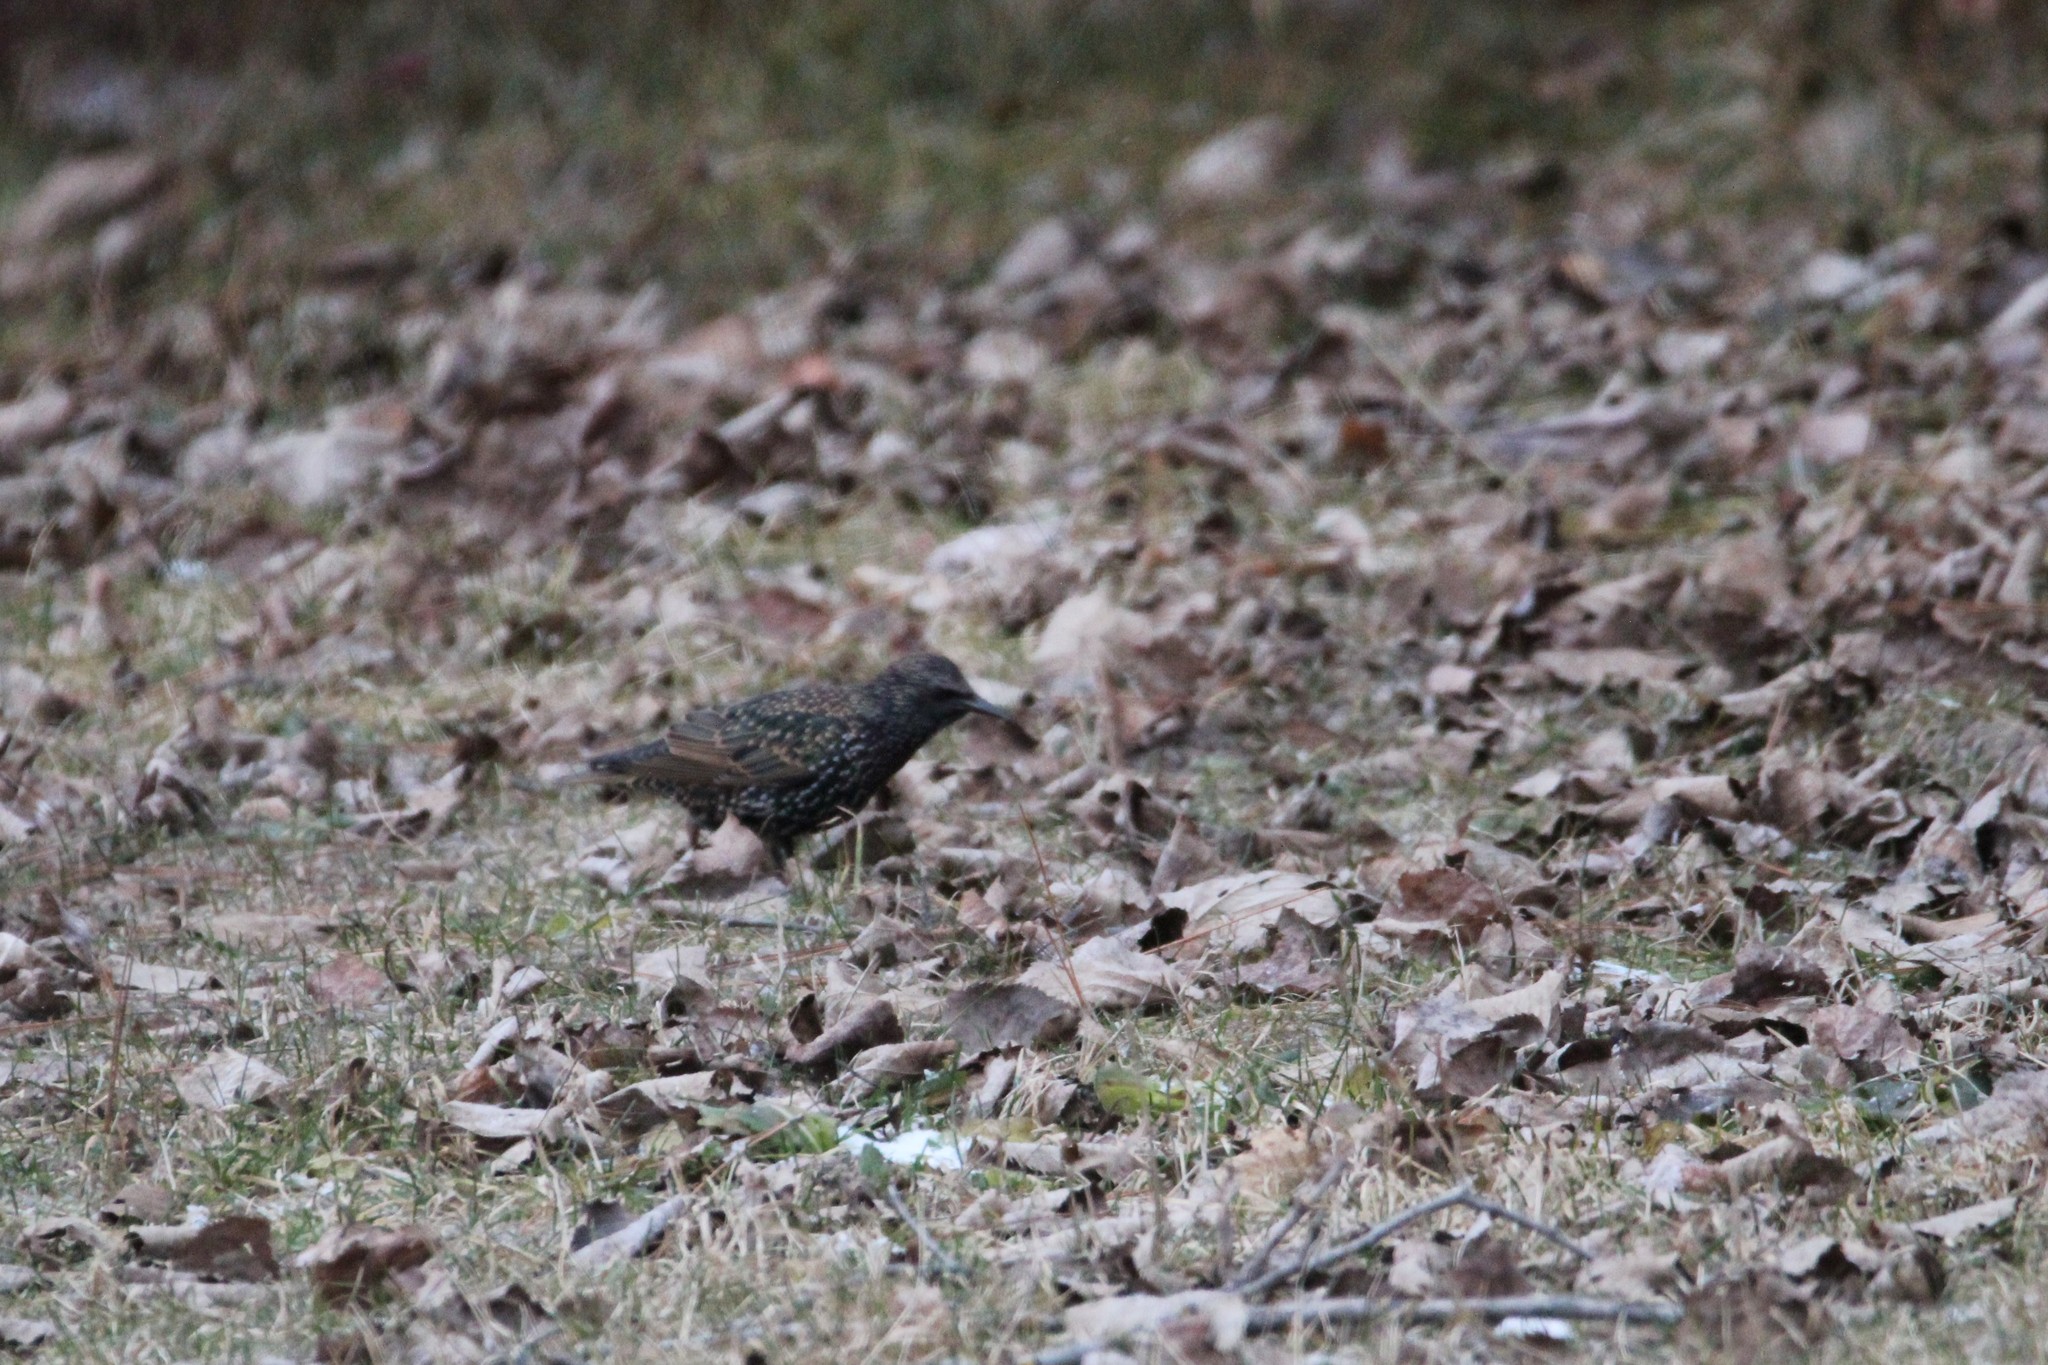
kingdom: Animalia
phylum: Chordata
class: Aves
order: Passeriformes
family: Sturnidae
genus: Sturnus
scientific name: Sturnus vulgaris
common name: Common starling
